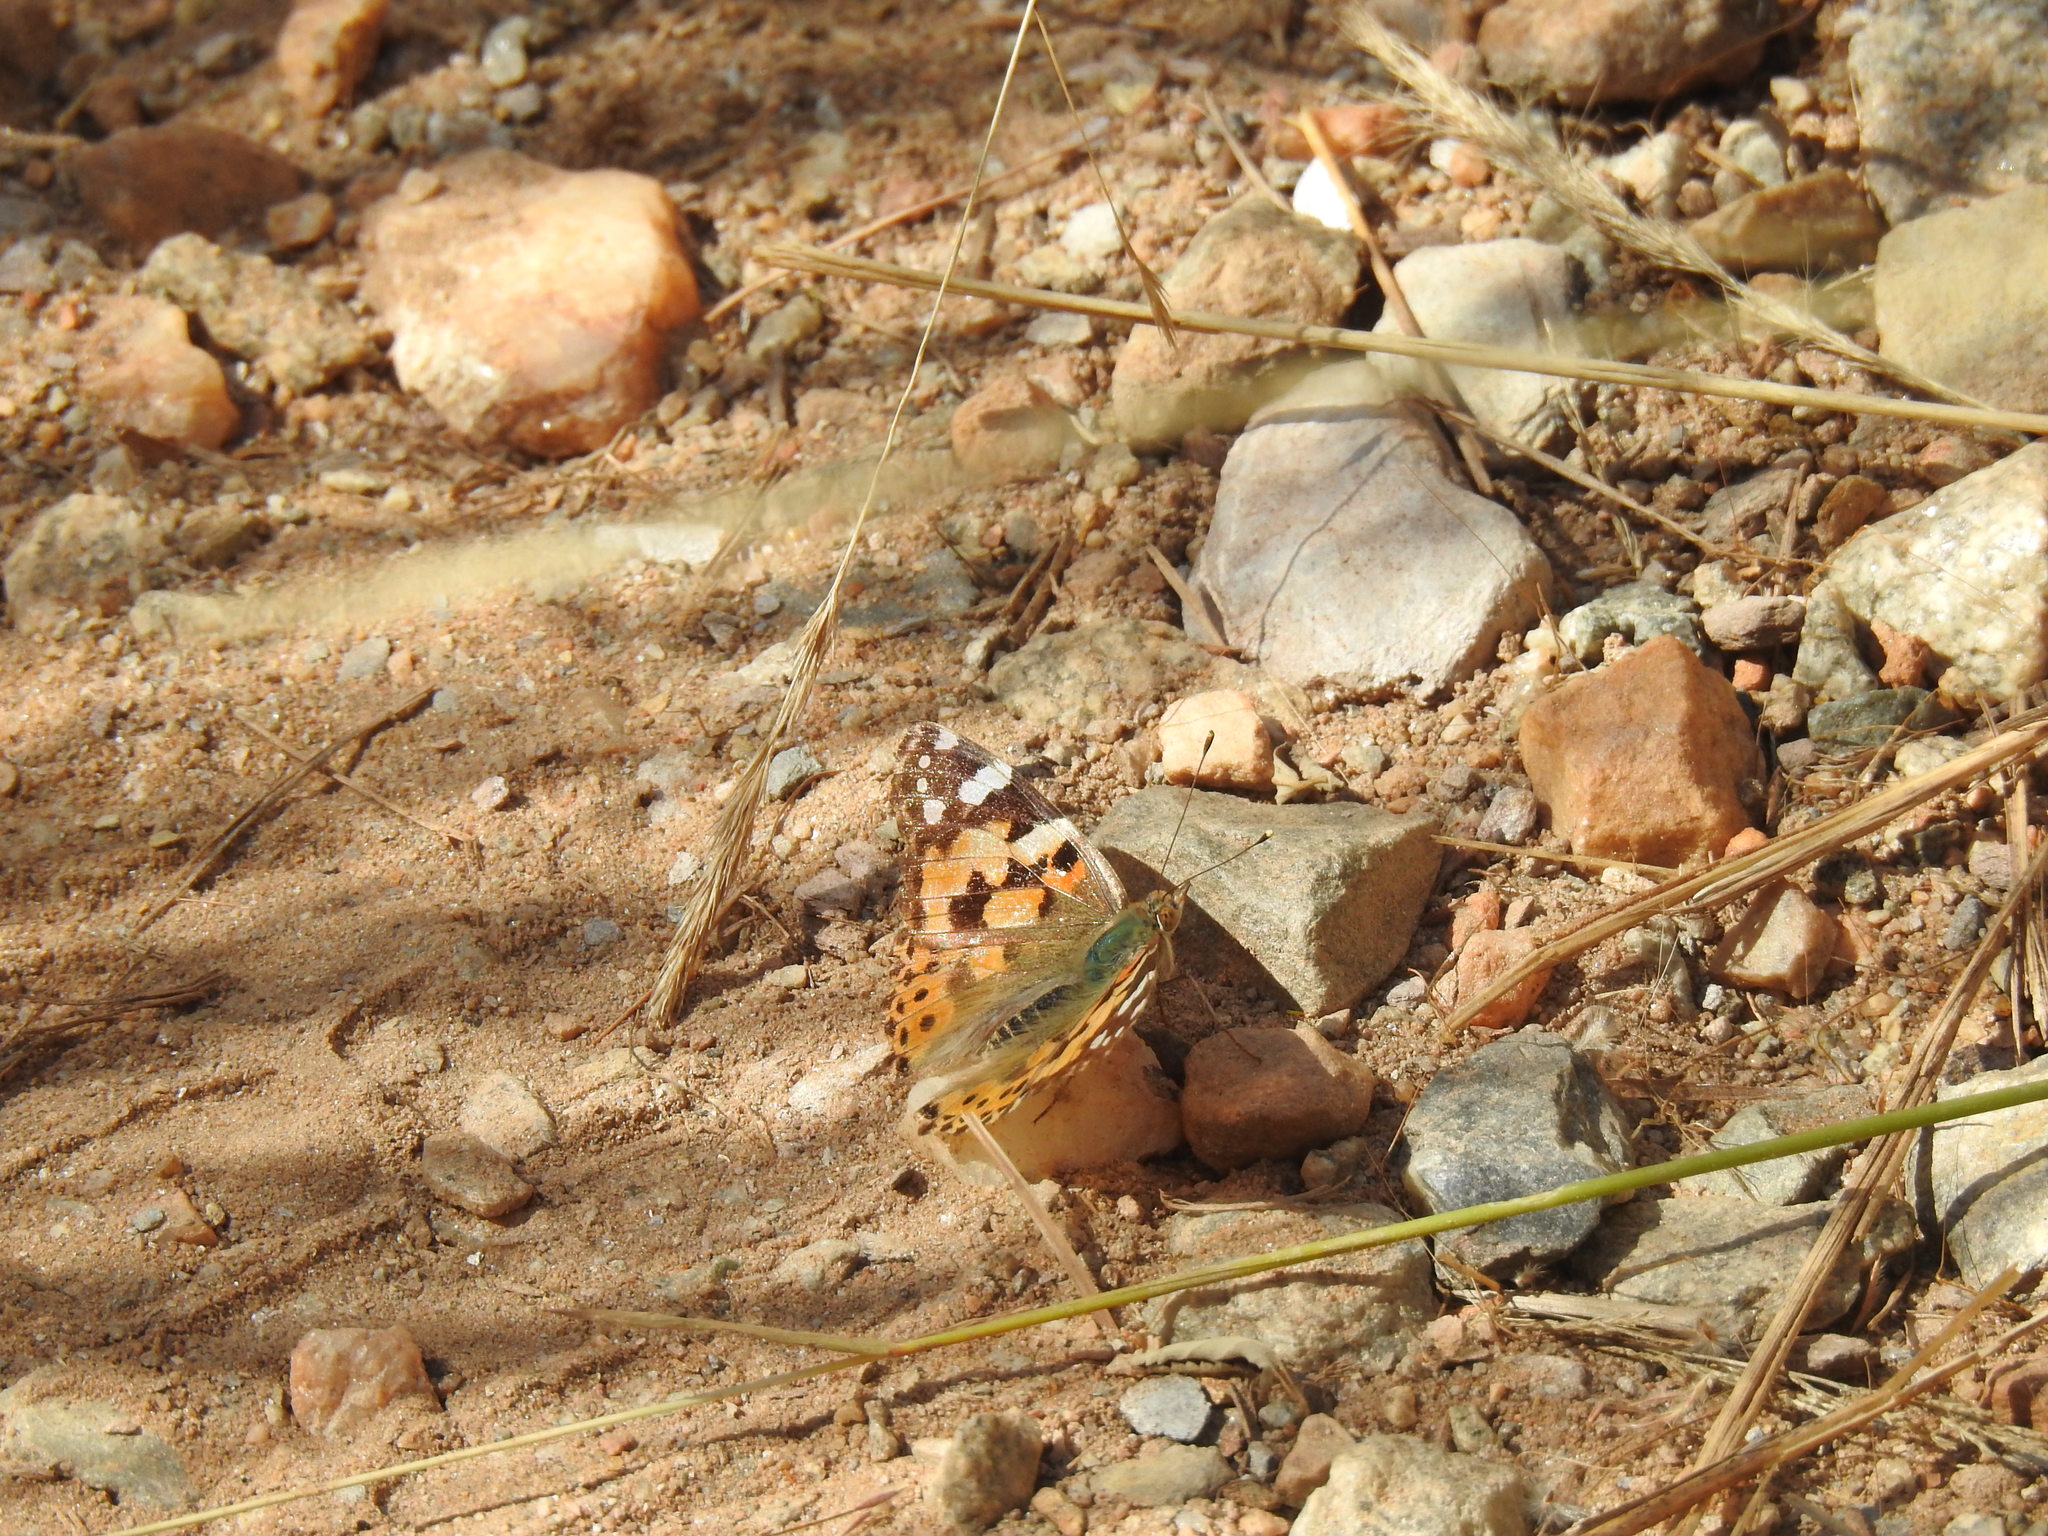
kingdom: Animalia
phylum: Arthropoda
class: Insecta
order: Lepidoptera
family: Nymphalidae
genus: Vanessa
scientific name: Vanessa cardui
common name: Painted lady
